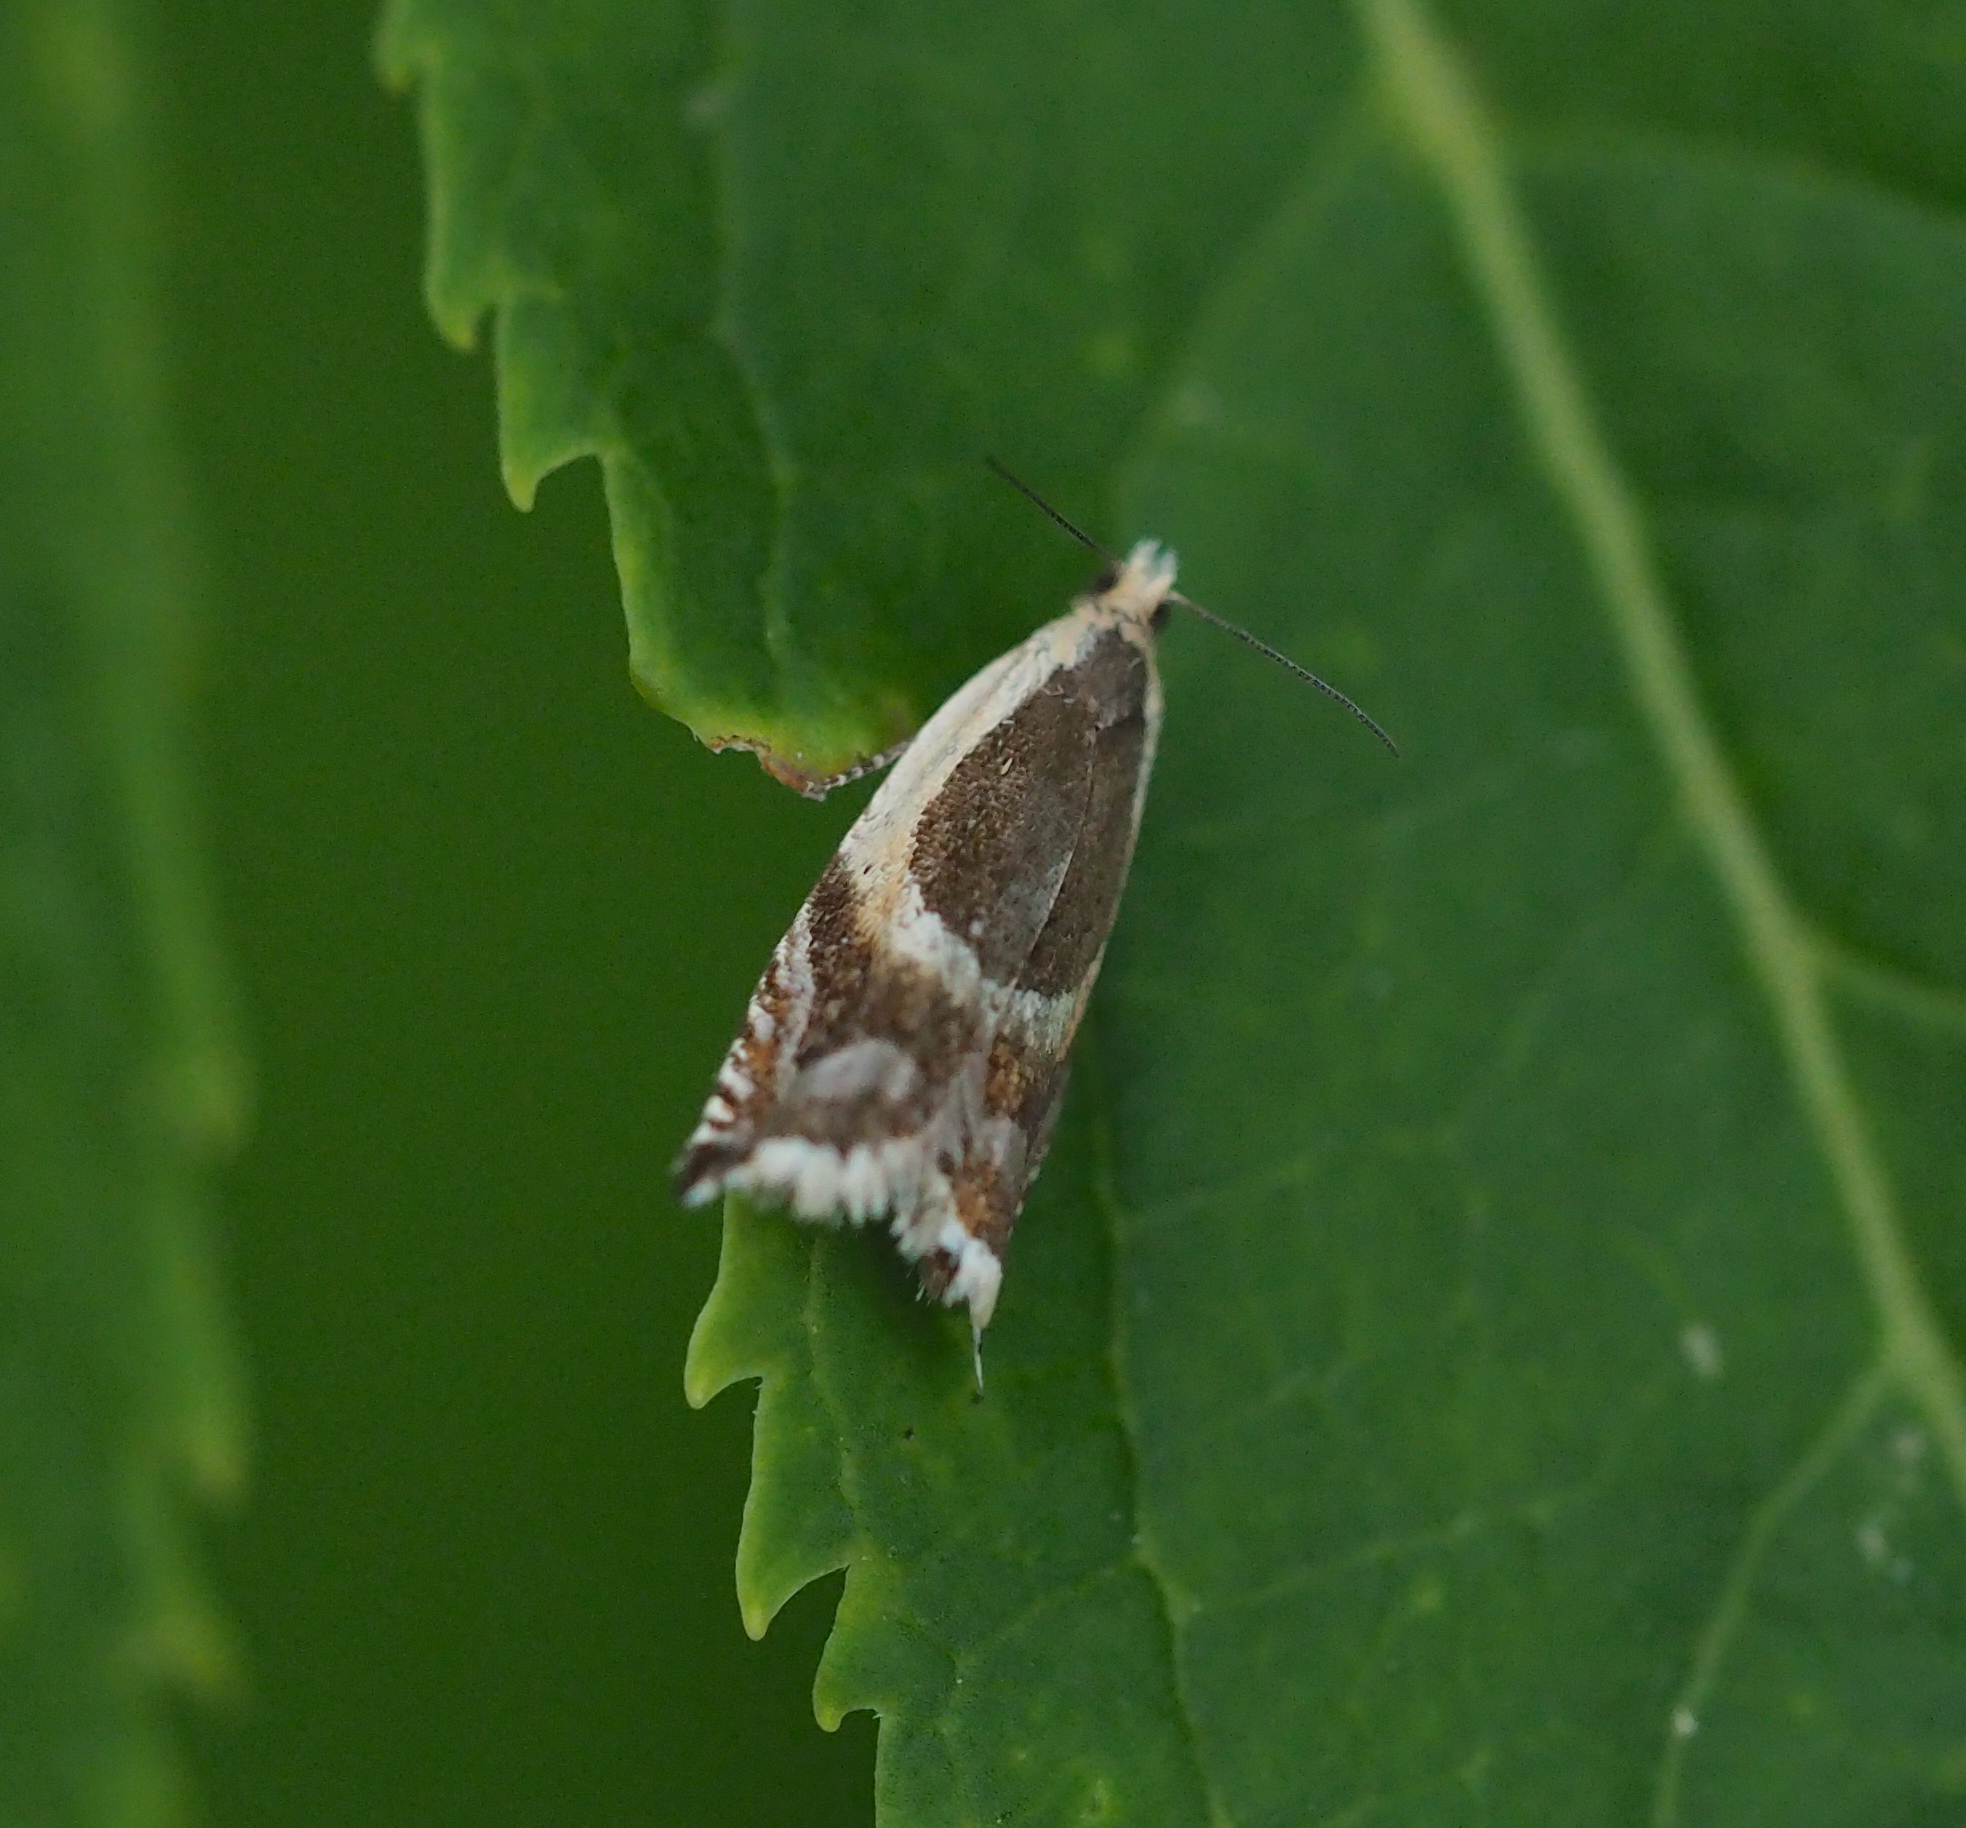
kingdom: Animalia
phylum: Arthropoda
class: Insecta
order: Lepidoptera
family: Tortricidae
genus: Ancylis
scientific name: Ancylis badiana
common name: Common roller
